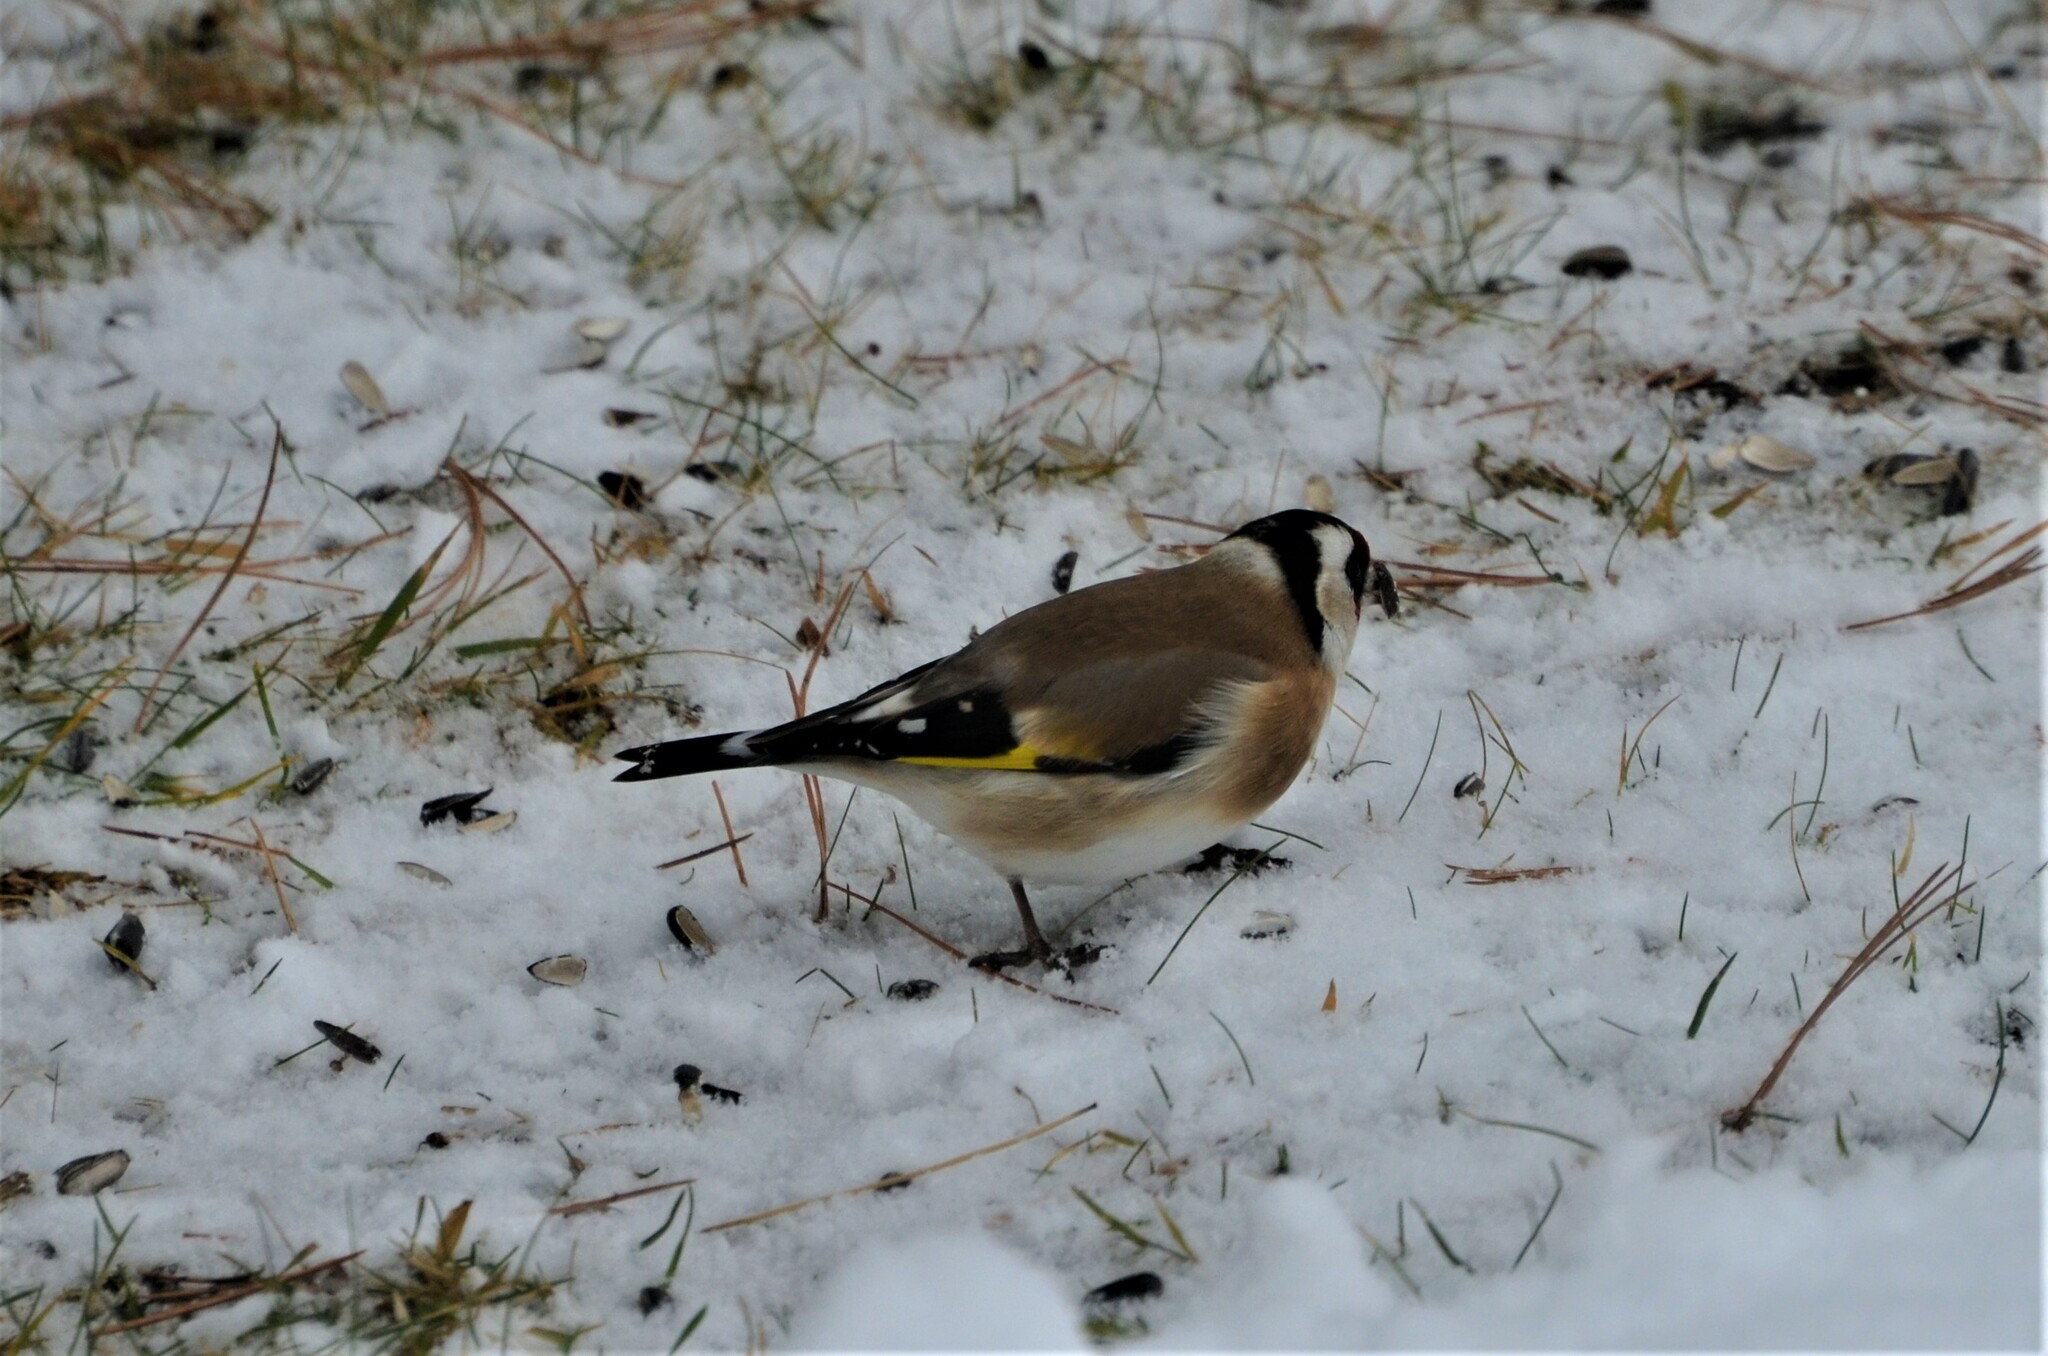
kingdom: Animalia
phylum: Chordata
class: Aves
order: Passeriformes
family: Fringillidae
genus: Carduelis
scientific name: Carduelis carduelis
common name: European goldfinch
